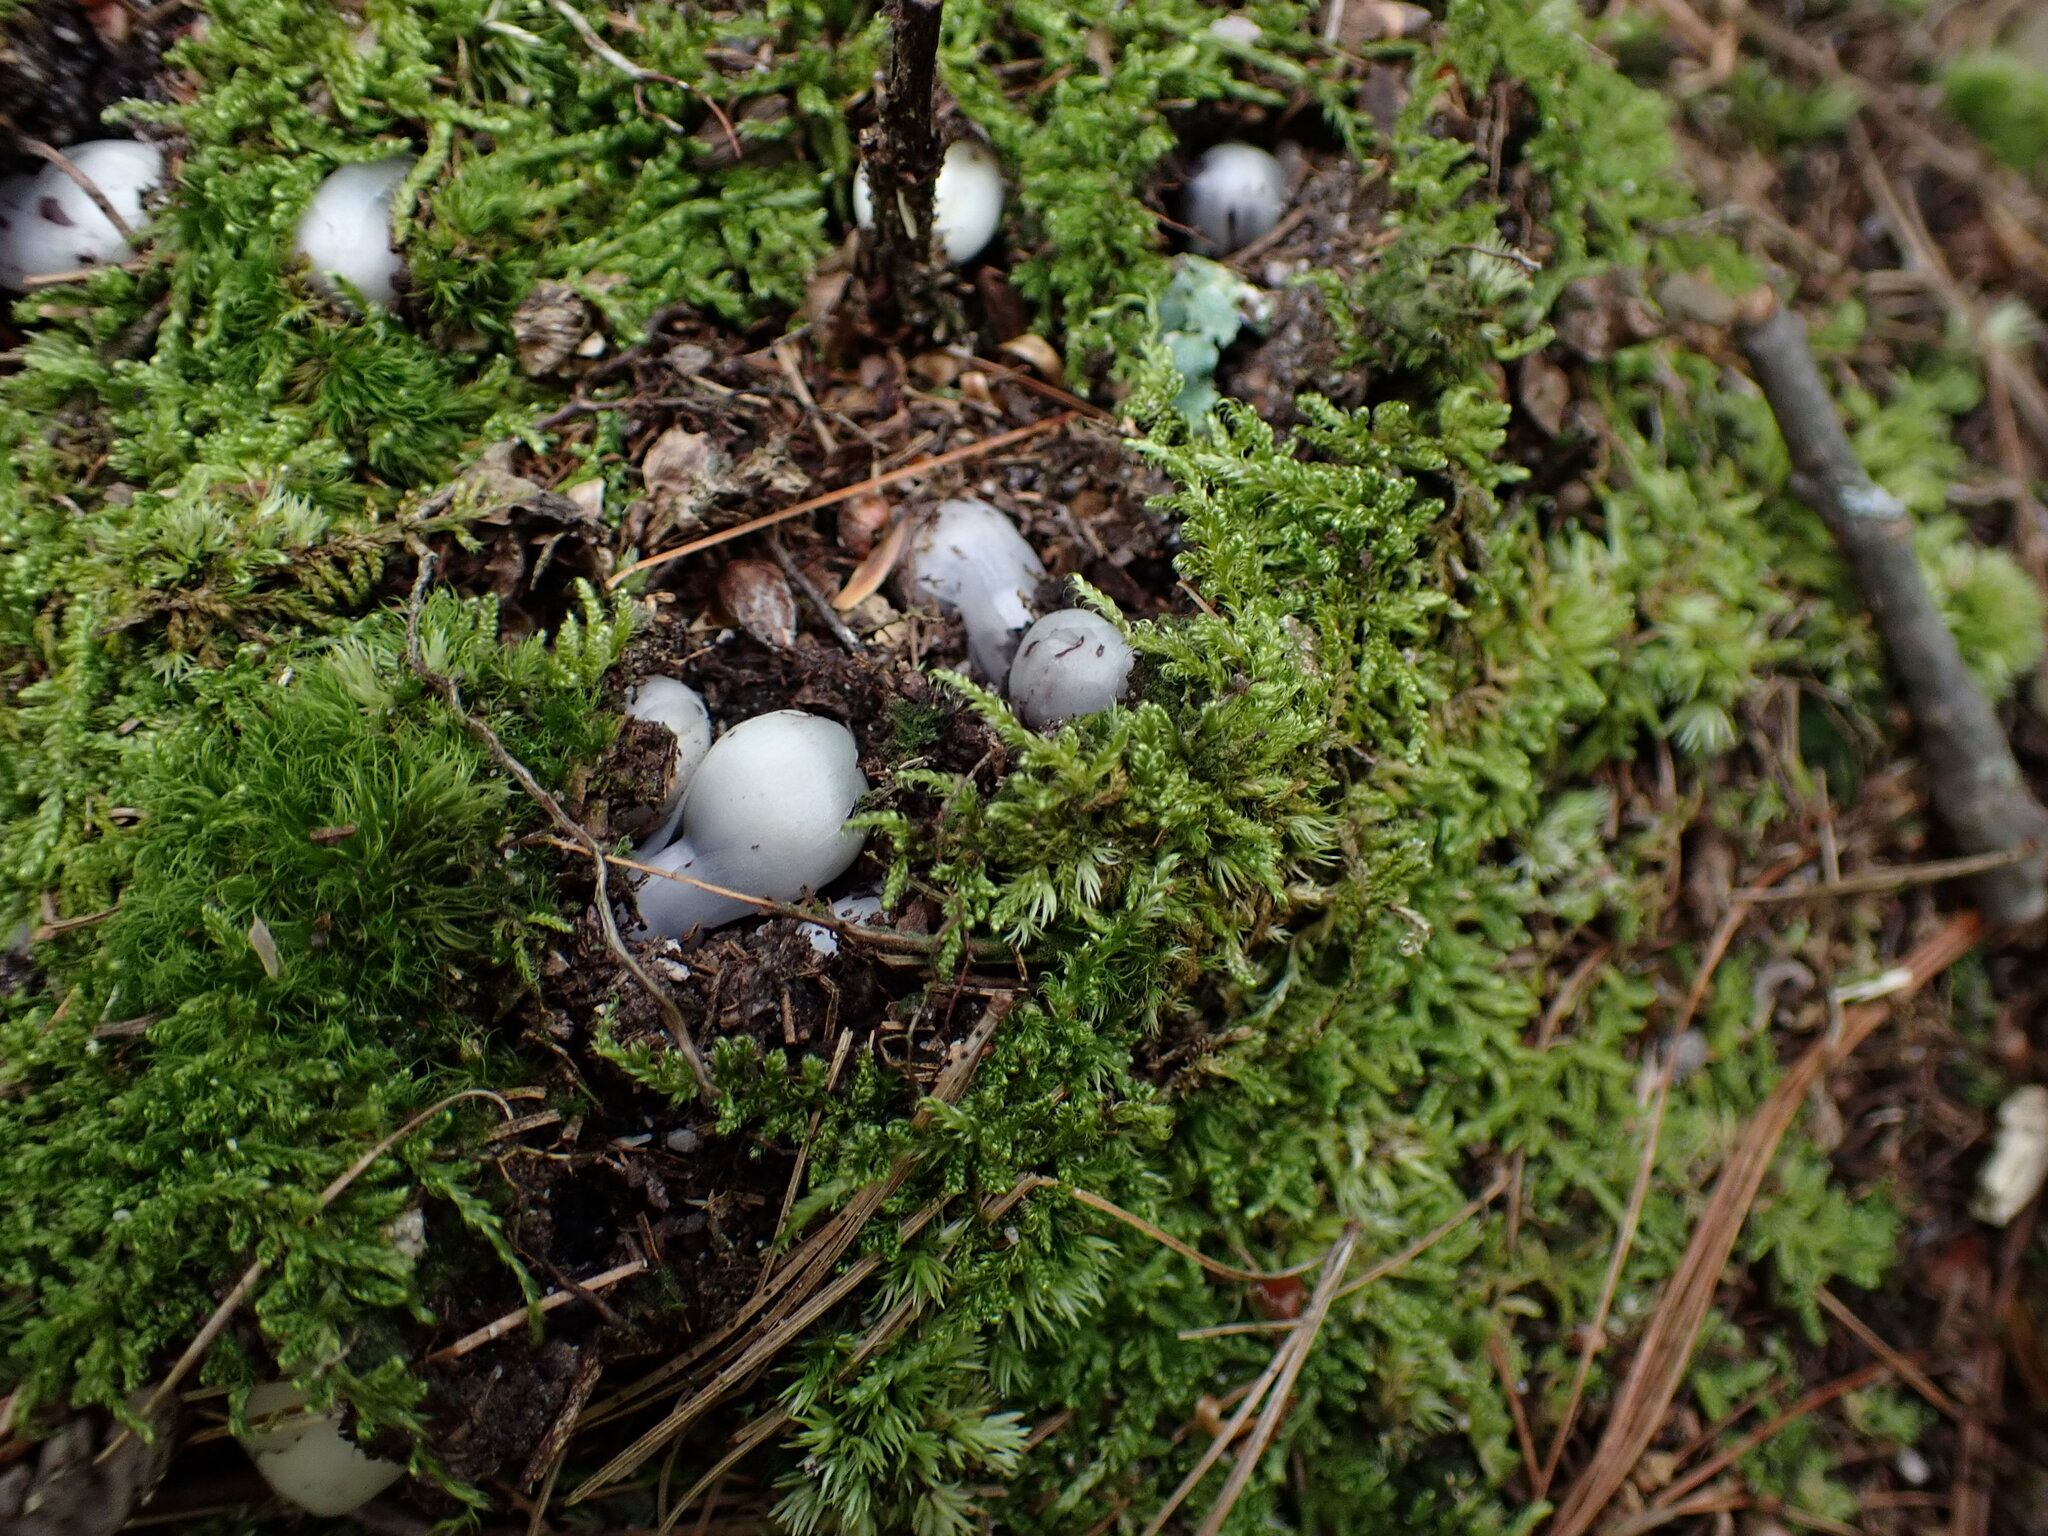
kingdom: Plantae
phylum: Tracheophyta
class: Magnoliopsida
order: Ericales
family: Ericaceae
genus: Monotropa
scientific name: Monotropa uniflora
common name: Convulsion root
